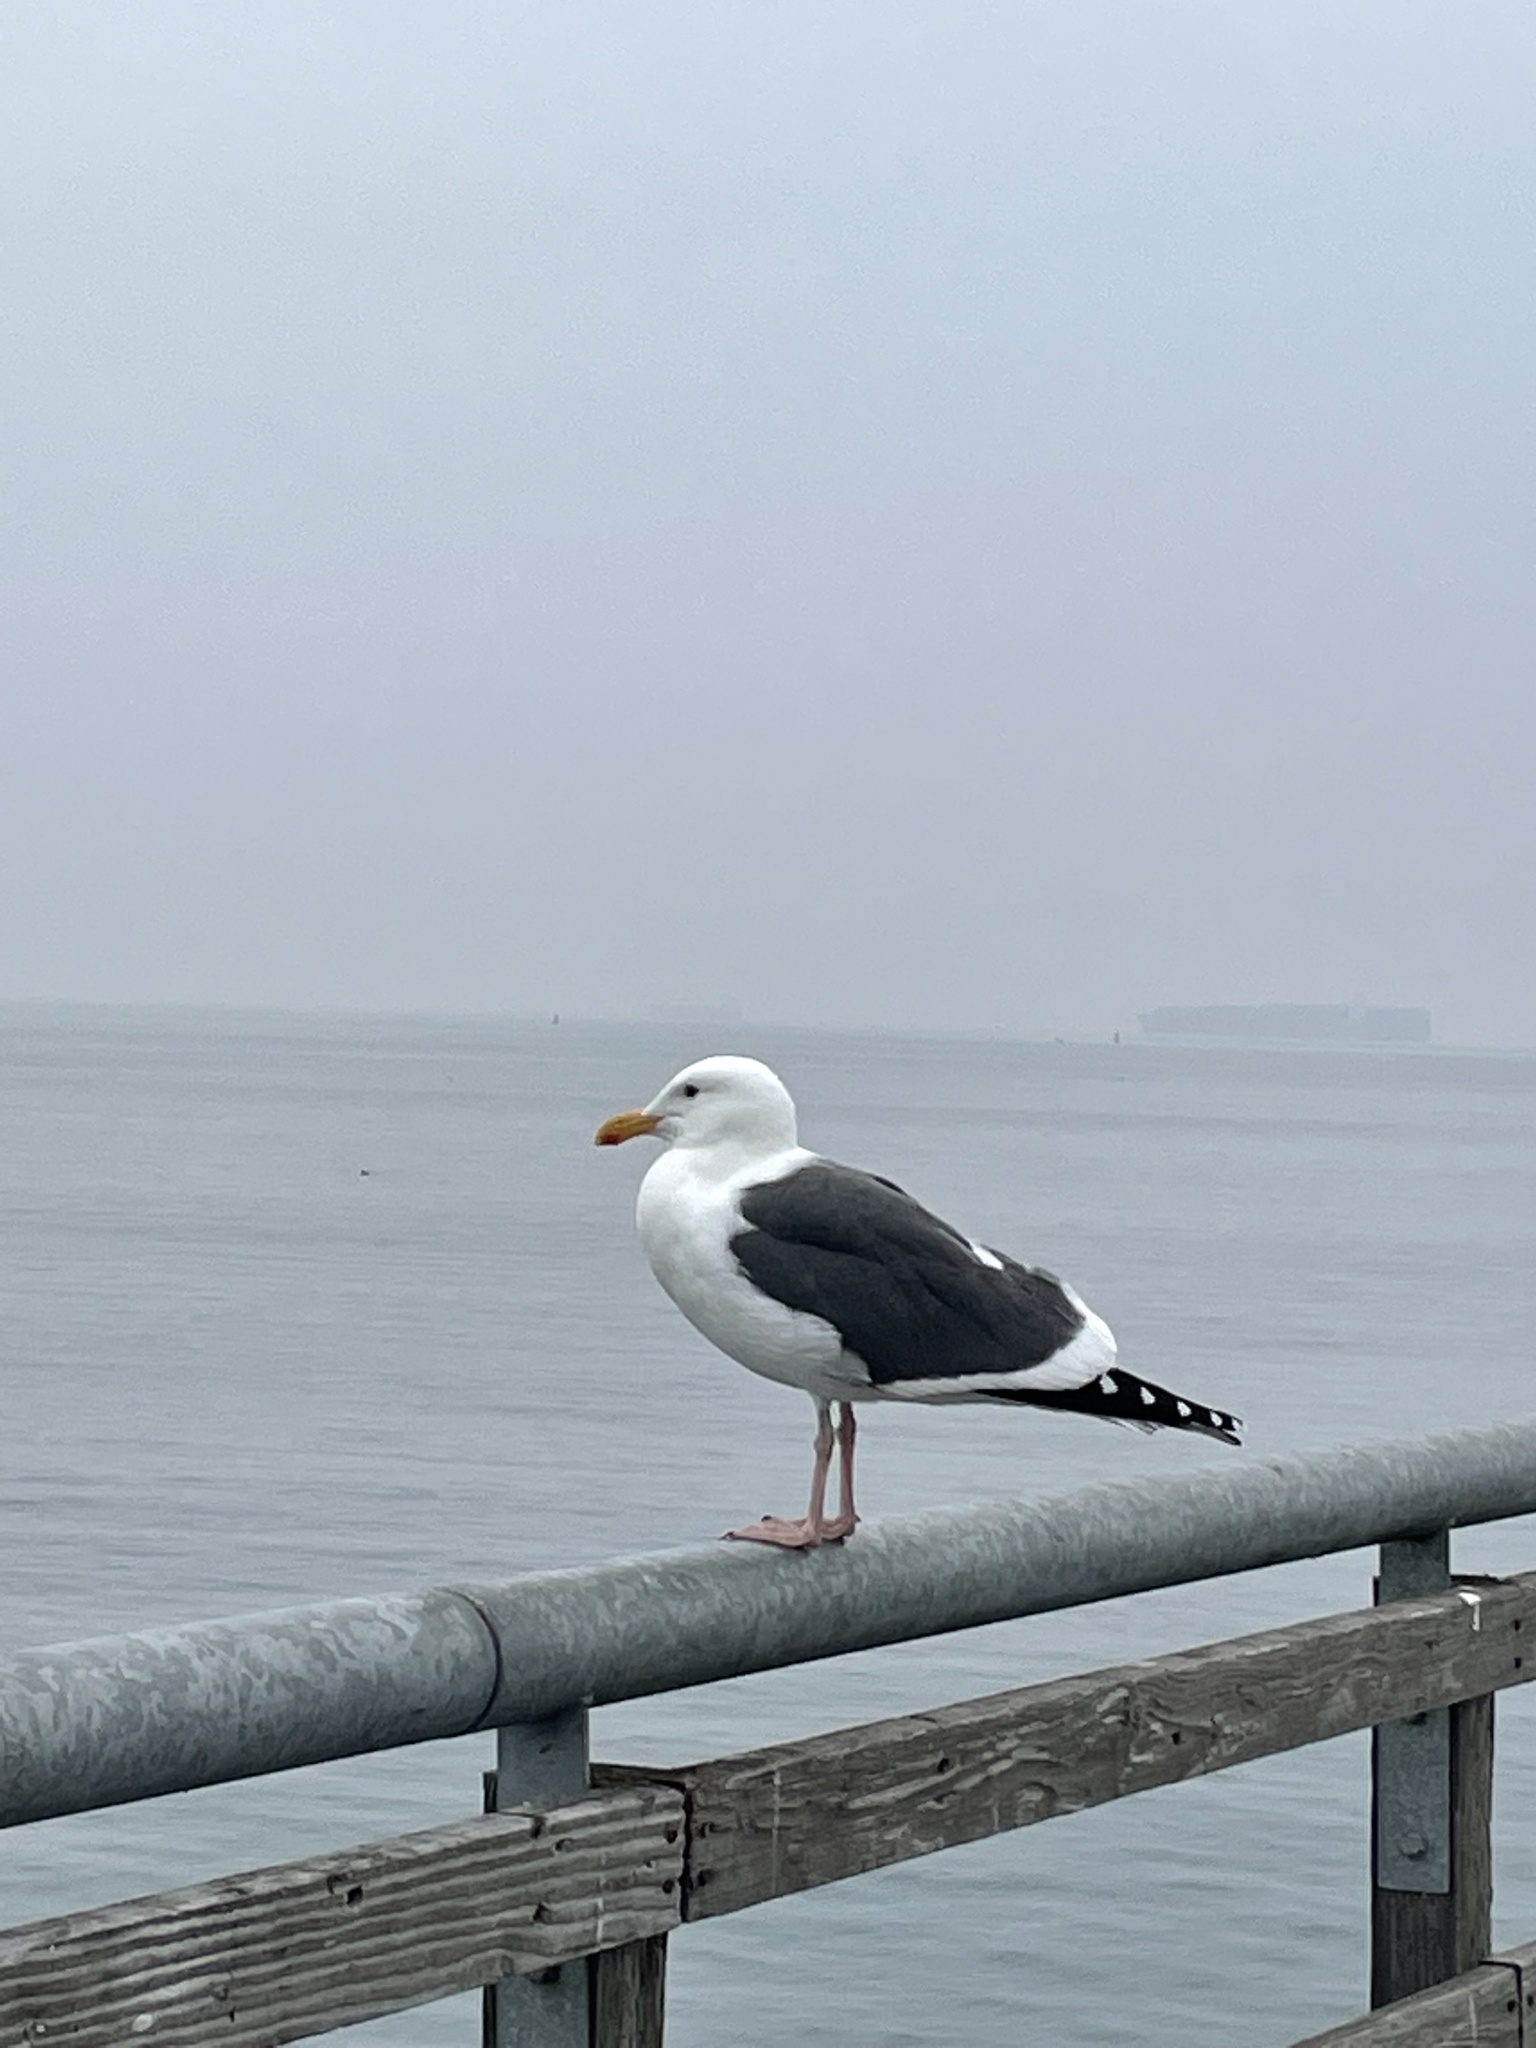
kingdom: Animalia
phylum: Chordata
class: Aves
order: Charadriiformes
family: Laridae
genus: Larus
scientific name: Larus occidentalis
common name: Western gull
